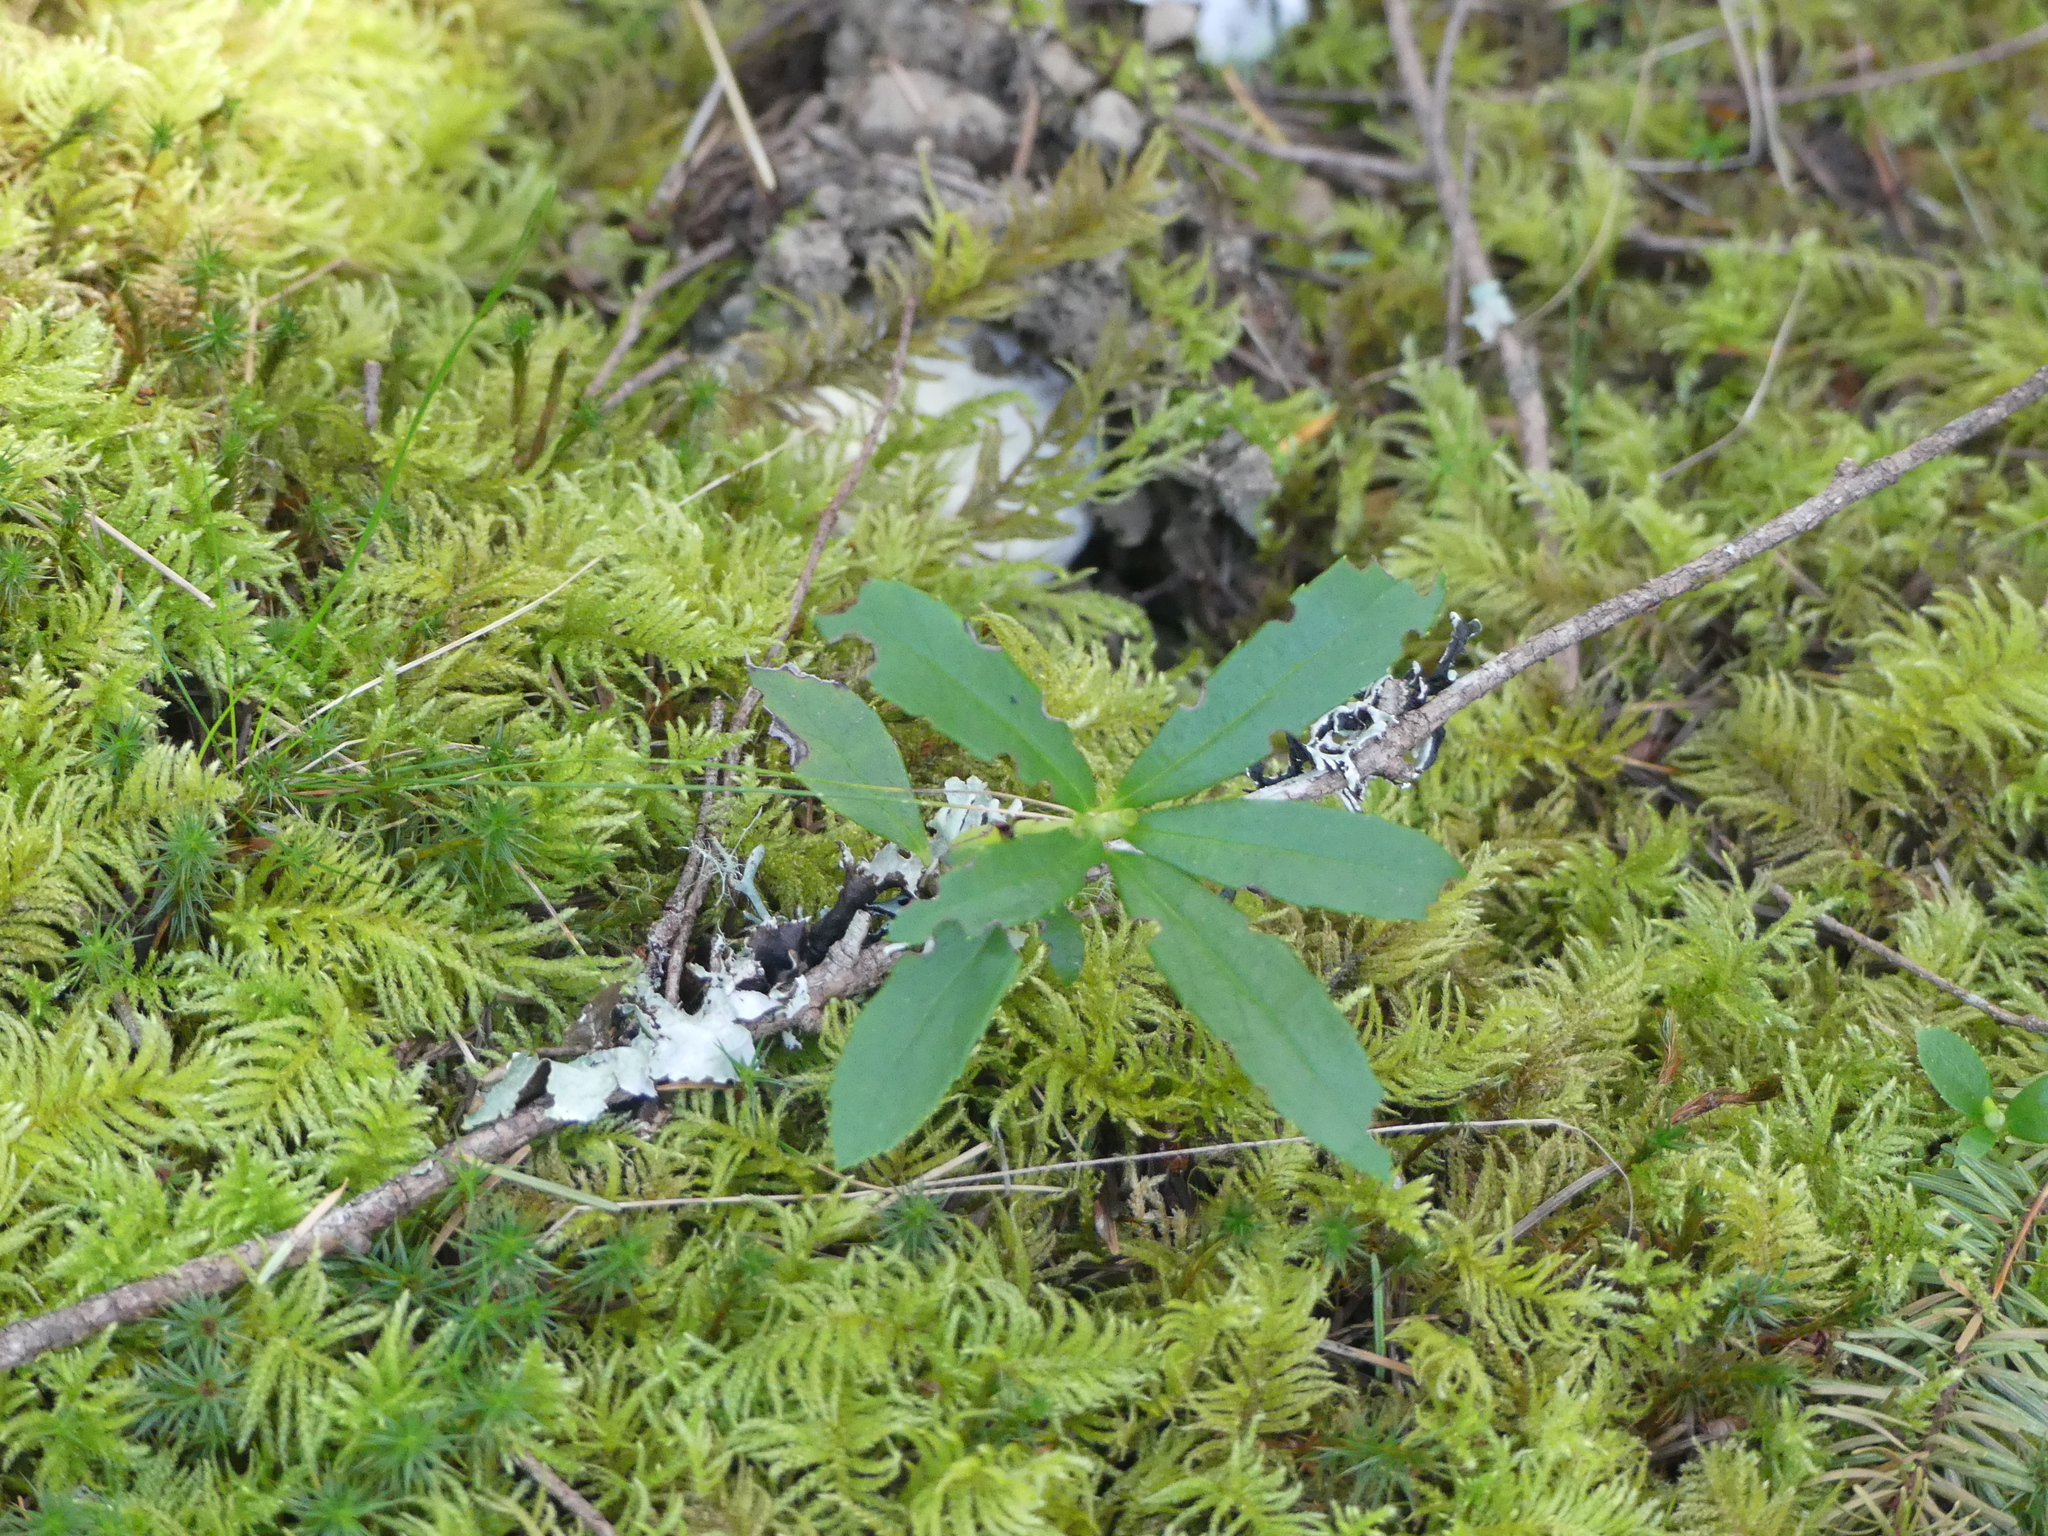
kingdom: Plantae
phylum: Tracheophyta
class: Magnoliopsida
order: Ericales
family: Ericaceae
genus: Chimaphila
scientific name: Chimaphila umbellata
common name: Pipsissewa
